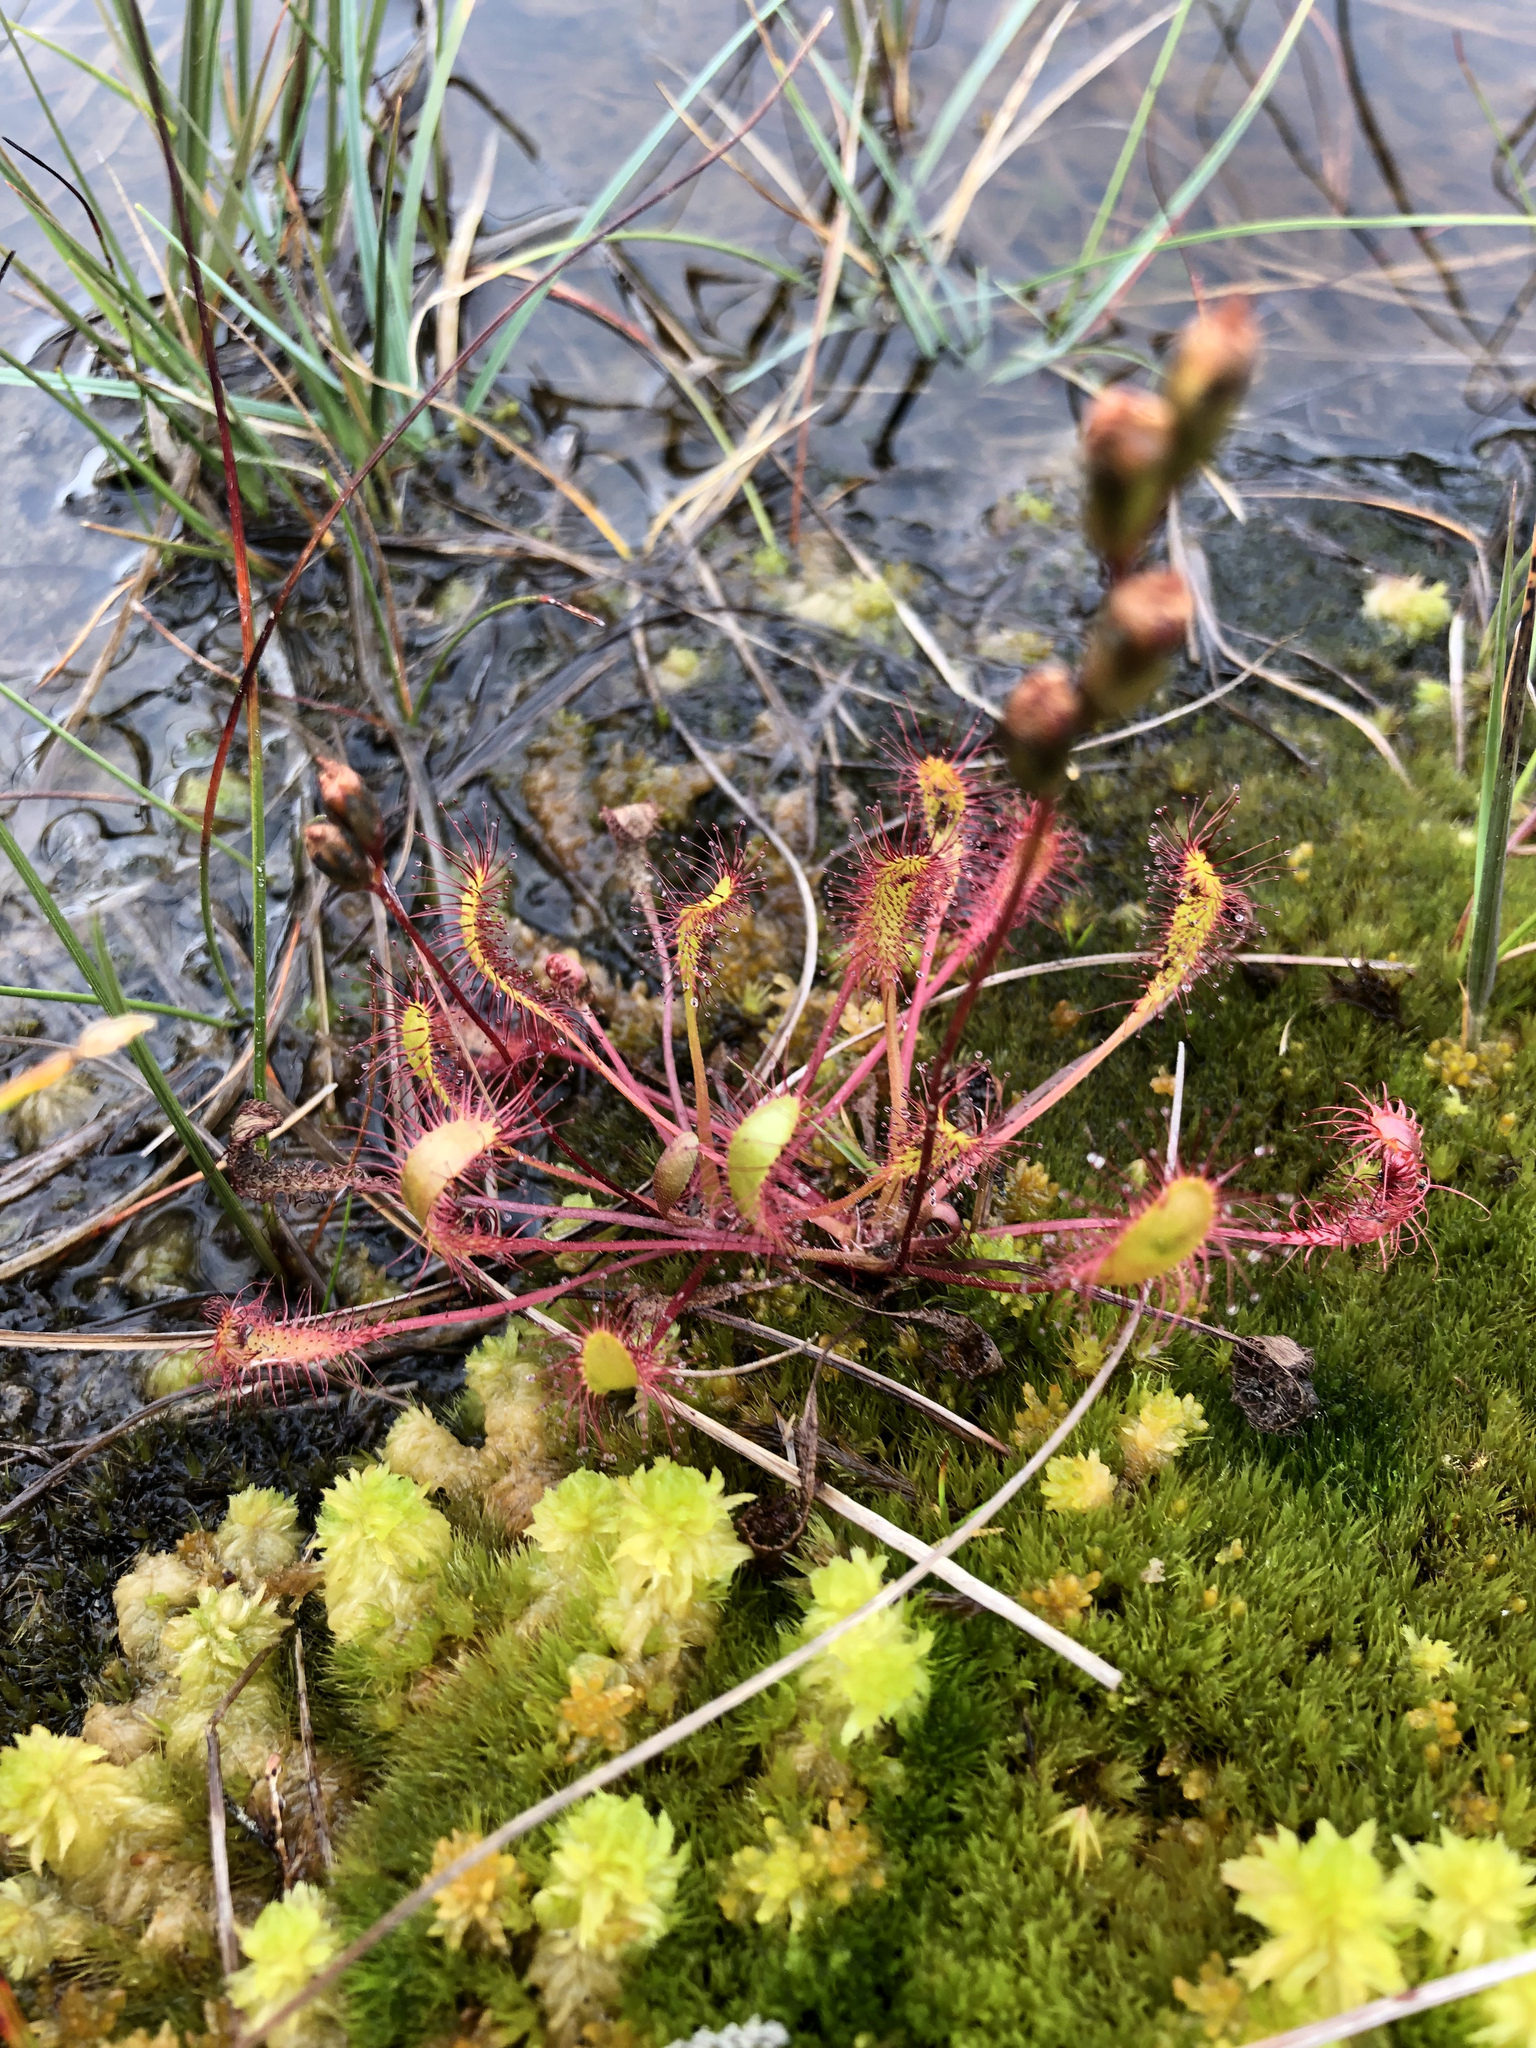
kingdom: Plantae
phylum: Tracheophyta
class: Magnoliopsida
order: Caryophyllales
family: Droseraceae
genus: Drosera
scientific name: Drosera anglica
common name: Great sundew
